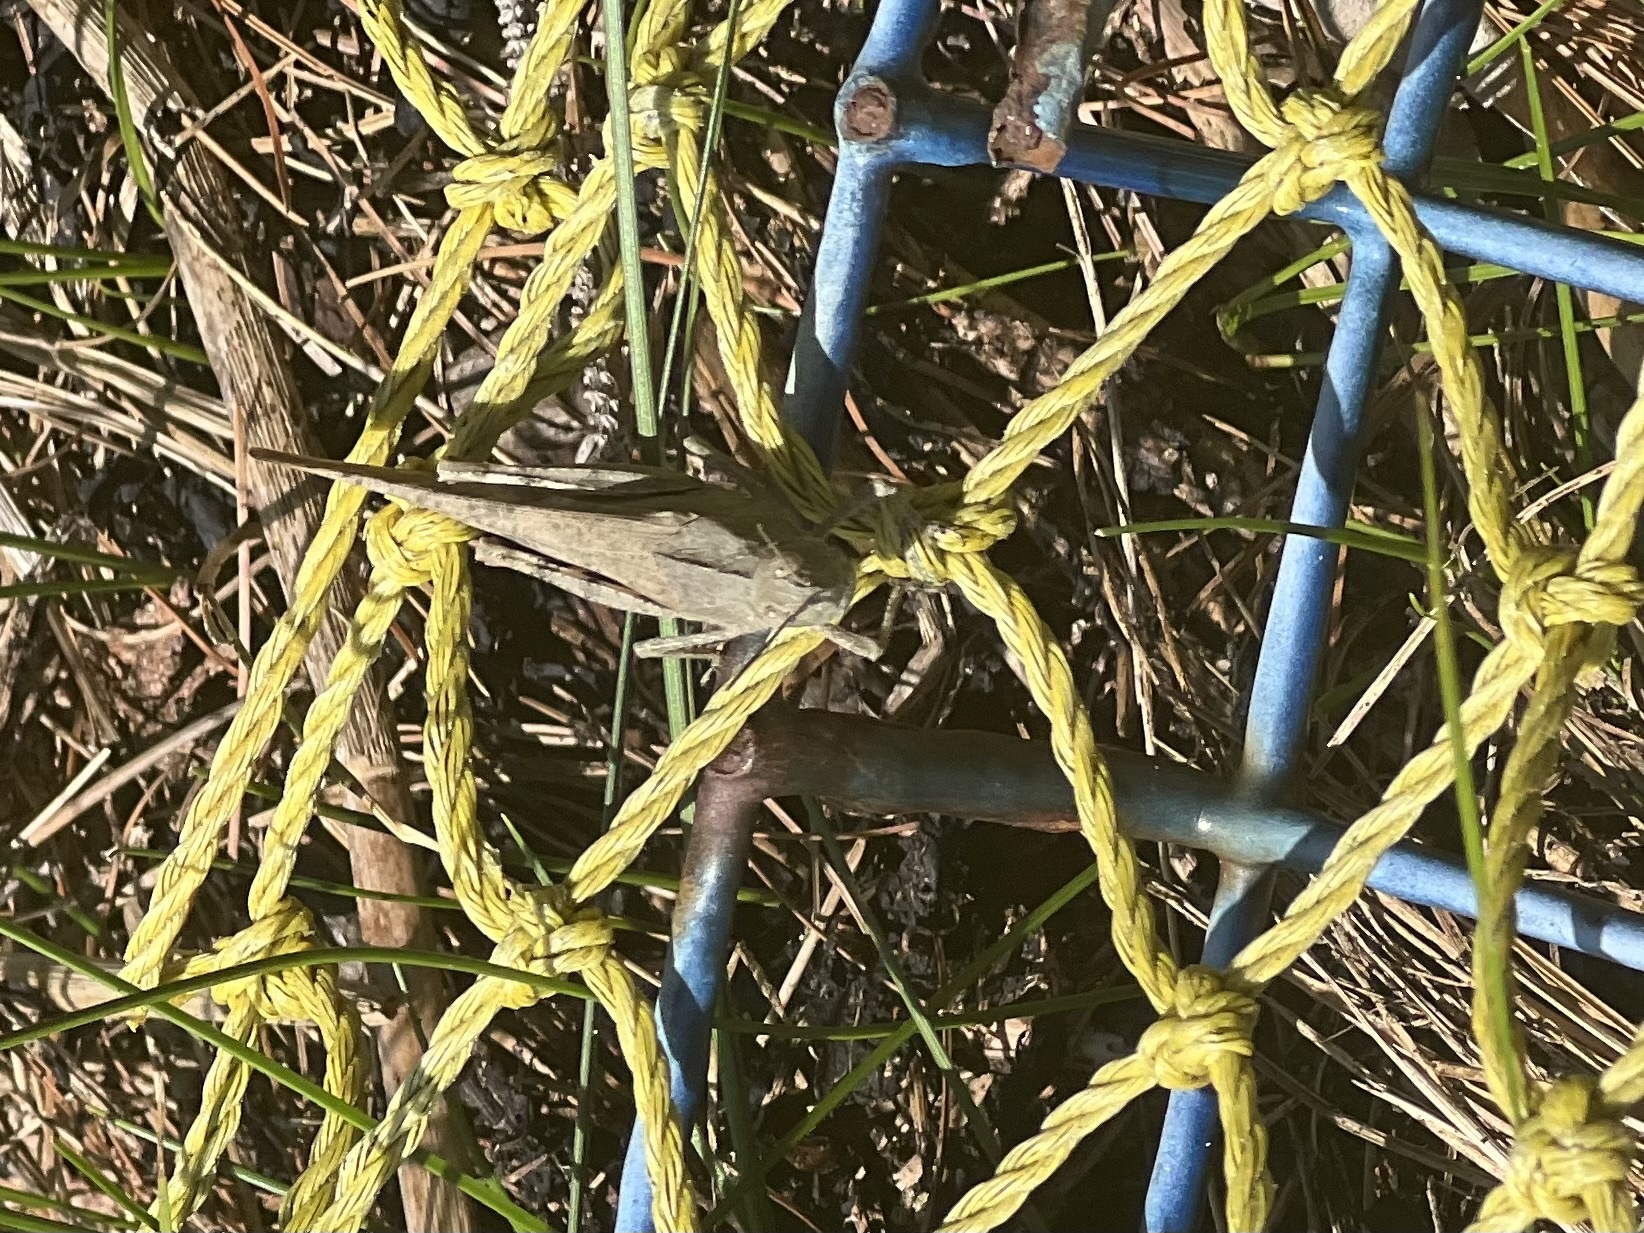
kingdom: Animalia
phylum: Arthropoda
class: Insecta
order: Orthoptera
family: Acrididae
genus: Dissosteira
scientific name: Dissosteira carolina
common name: Carolina grasshopper
